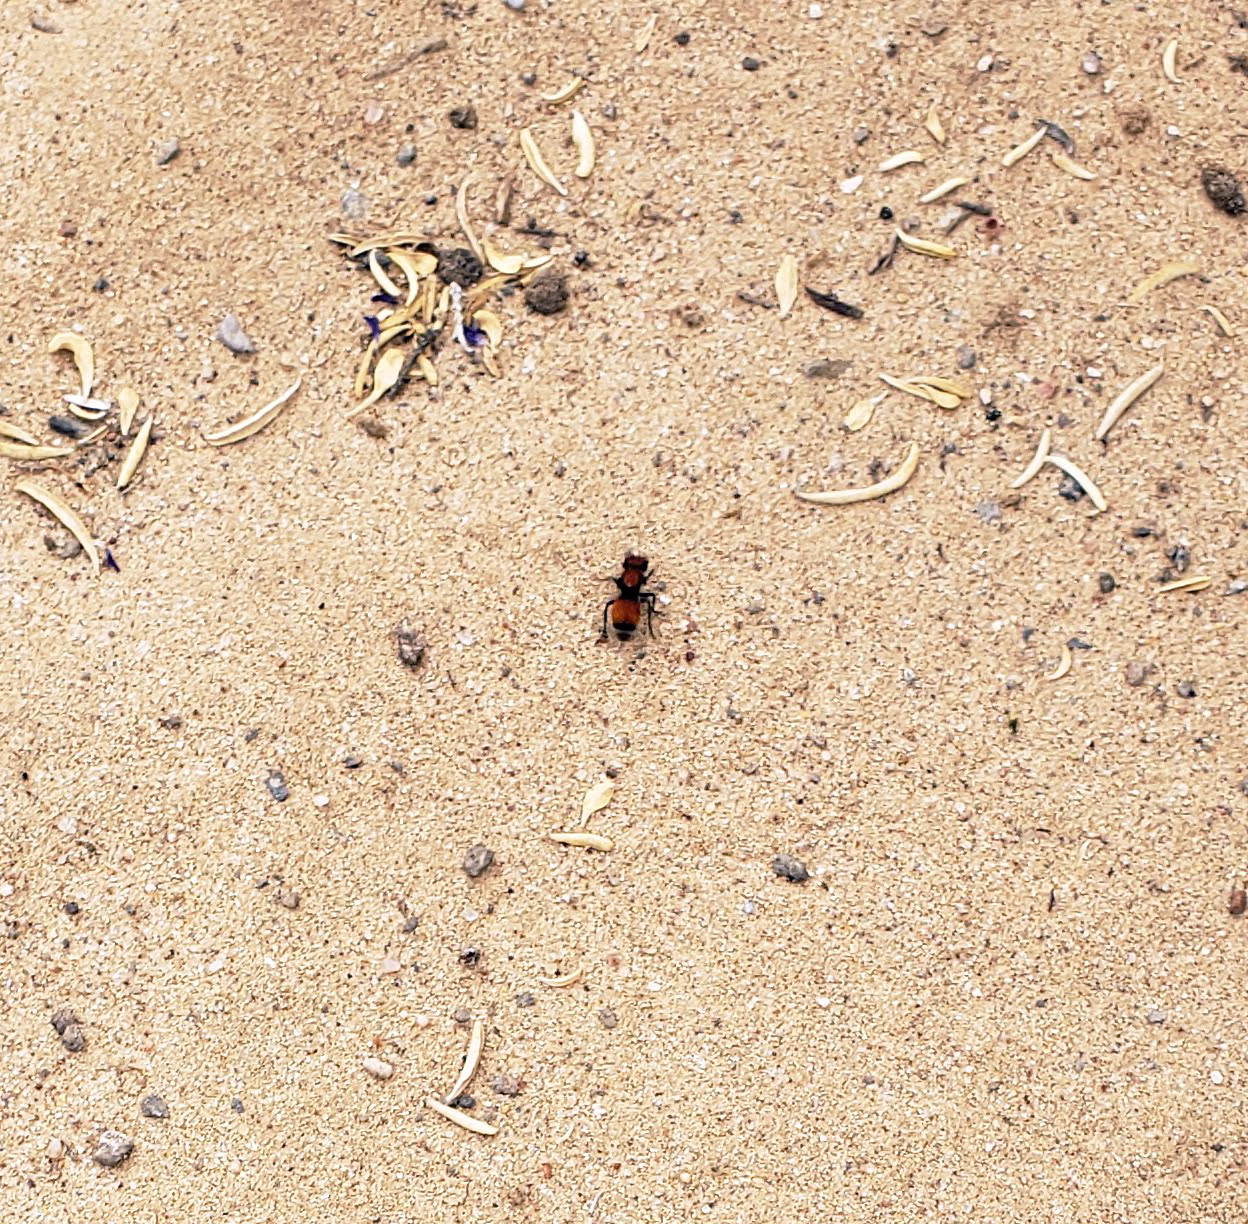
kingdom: Animalia
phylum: Arthropoda
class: Insecta
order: Hymenoptera
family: Mutillidae
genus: Pseudomethoca
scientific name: Pseudomethoca
